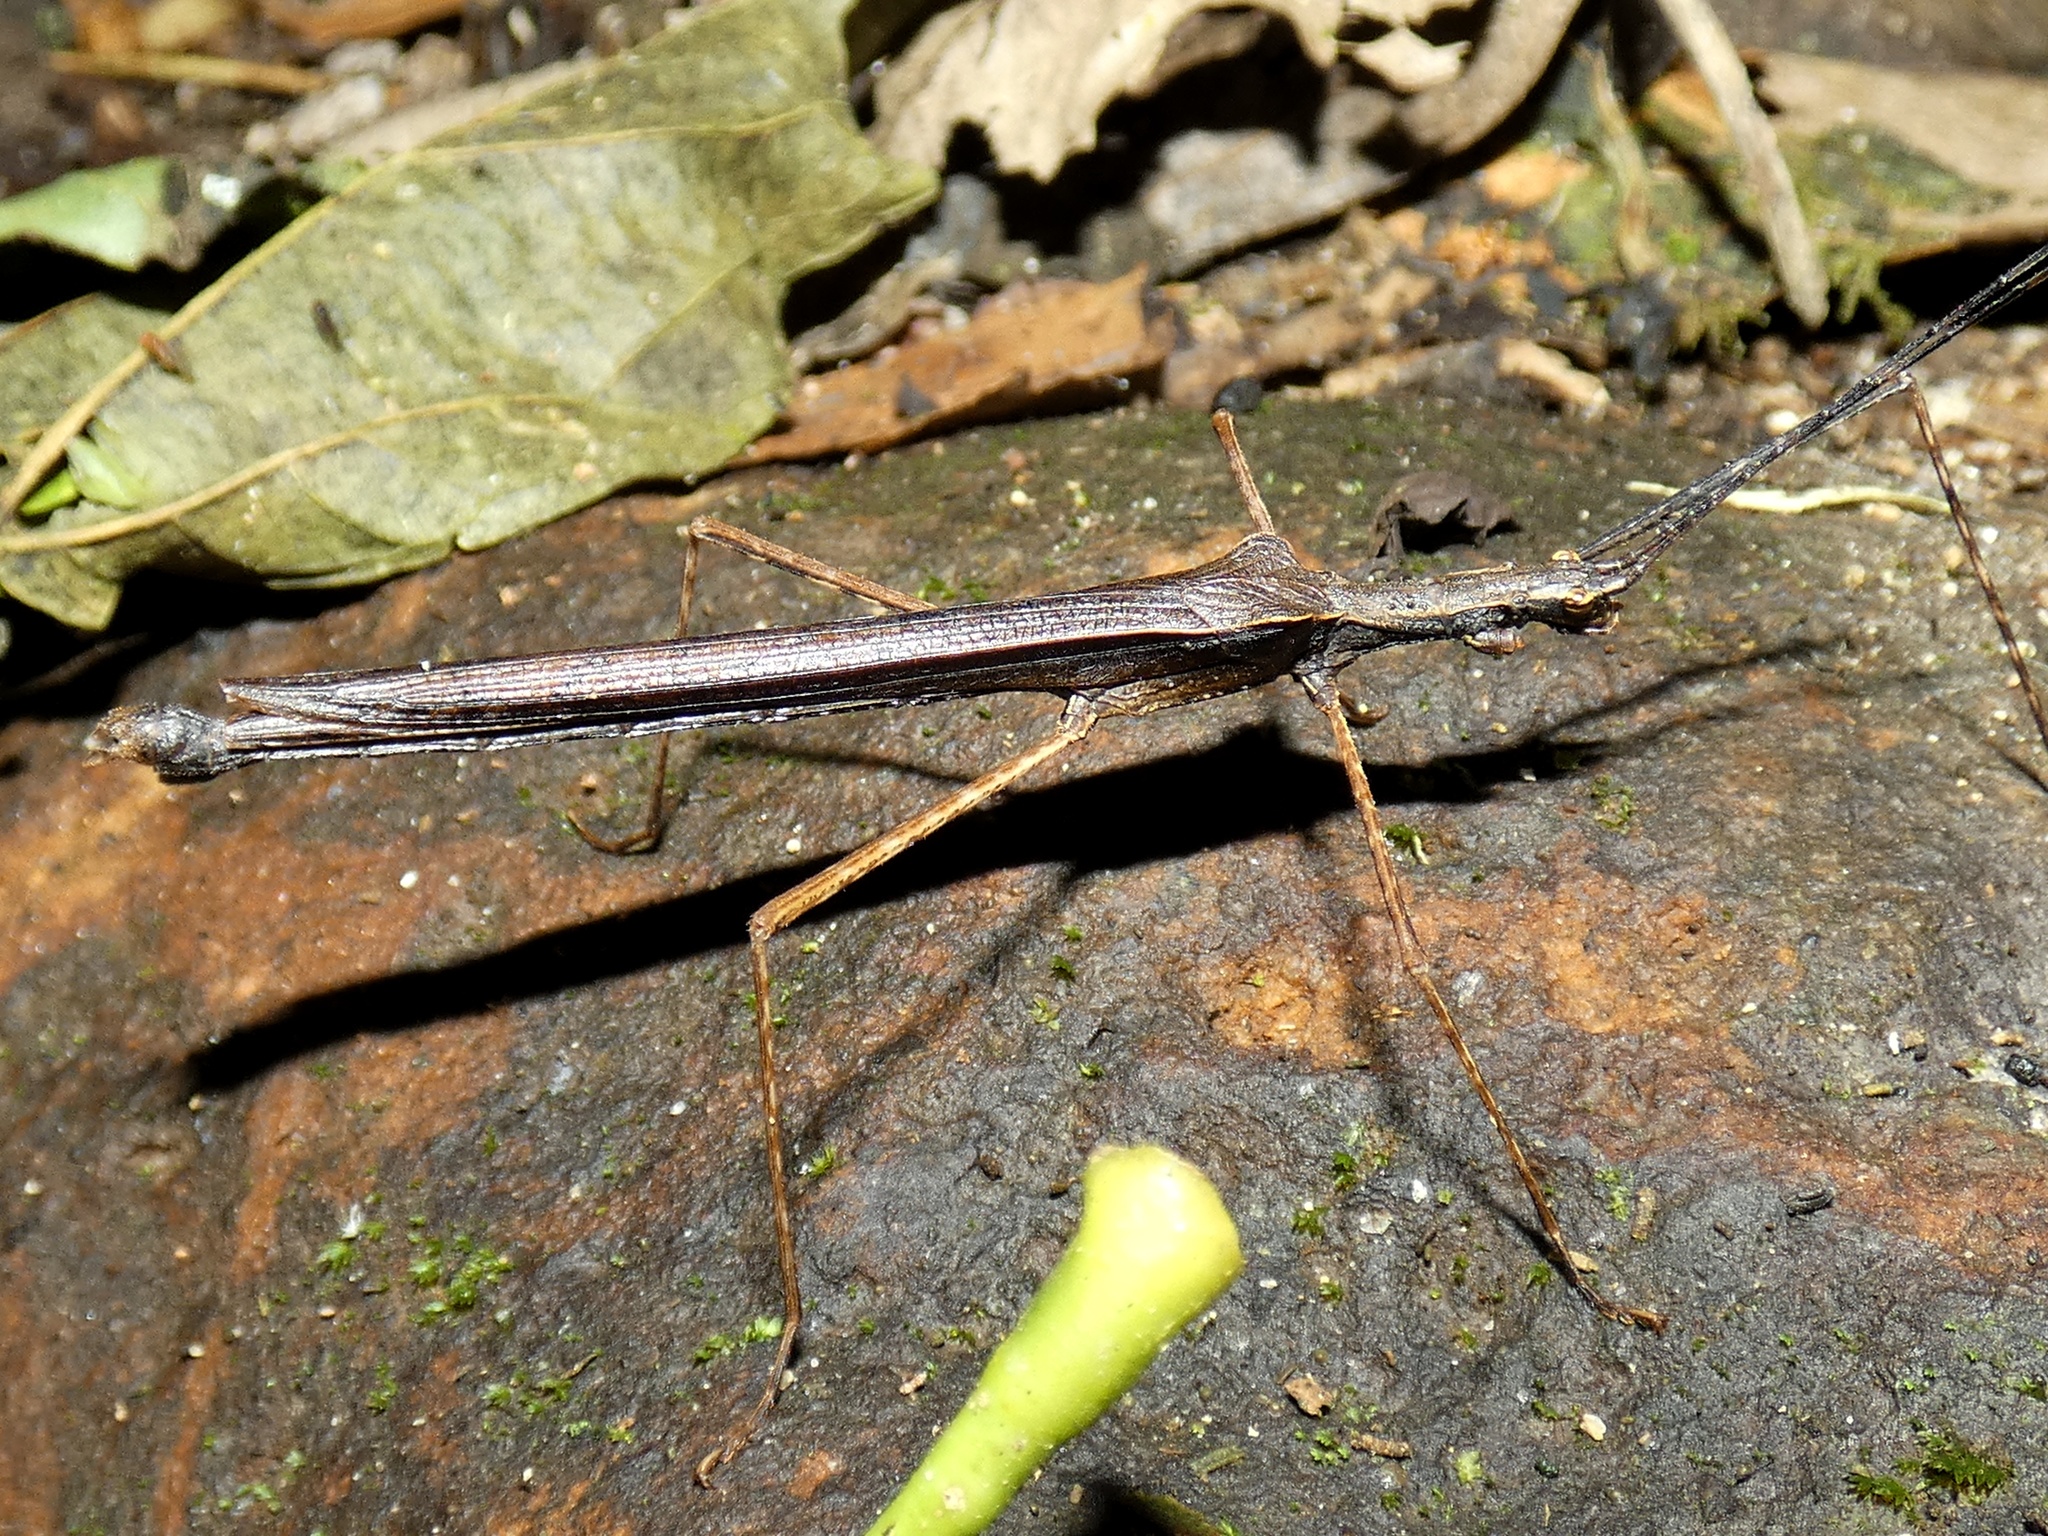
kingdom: Animalia
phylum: Arthropoda
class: Insecta
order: Phasmida
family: Pseudophasmatidae
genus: Pseudophasma
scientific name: Pseudophasma unicolor
